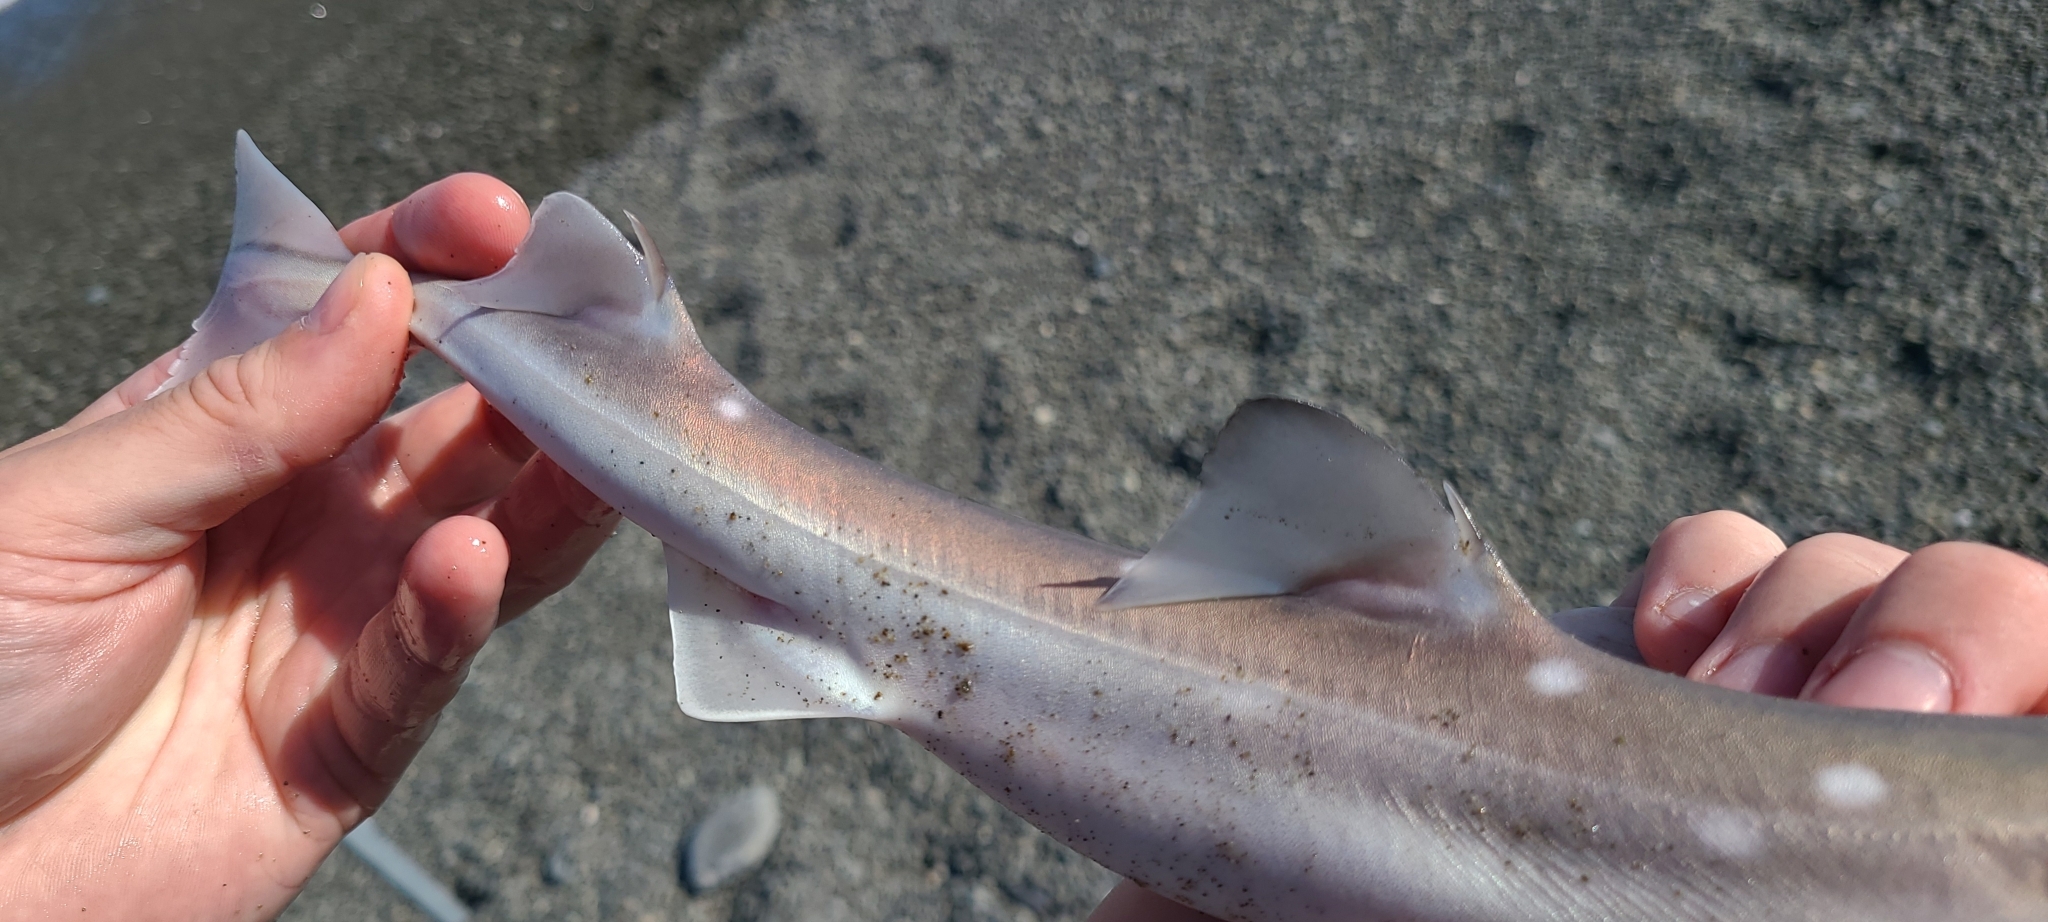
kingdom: Animalia
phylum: Chordata
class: Elasmobranchii
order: Squaliformes
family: Squalidae
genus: Squalus
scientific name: Squalus acanthias
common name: Spurdog
